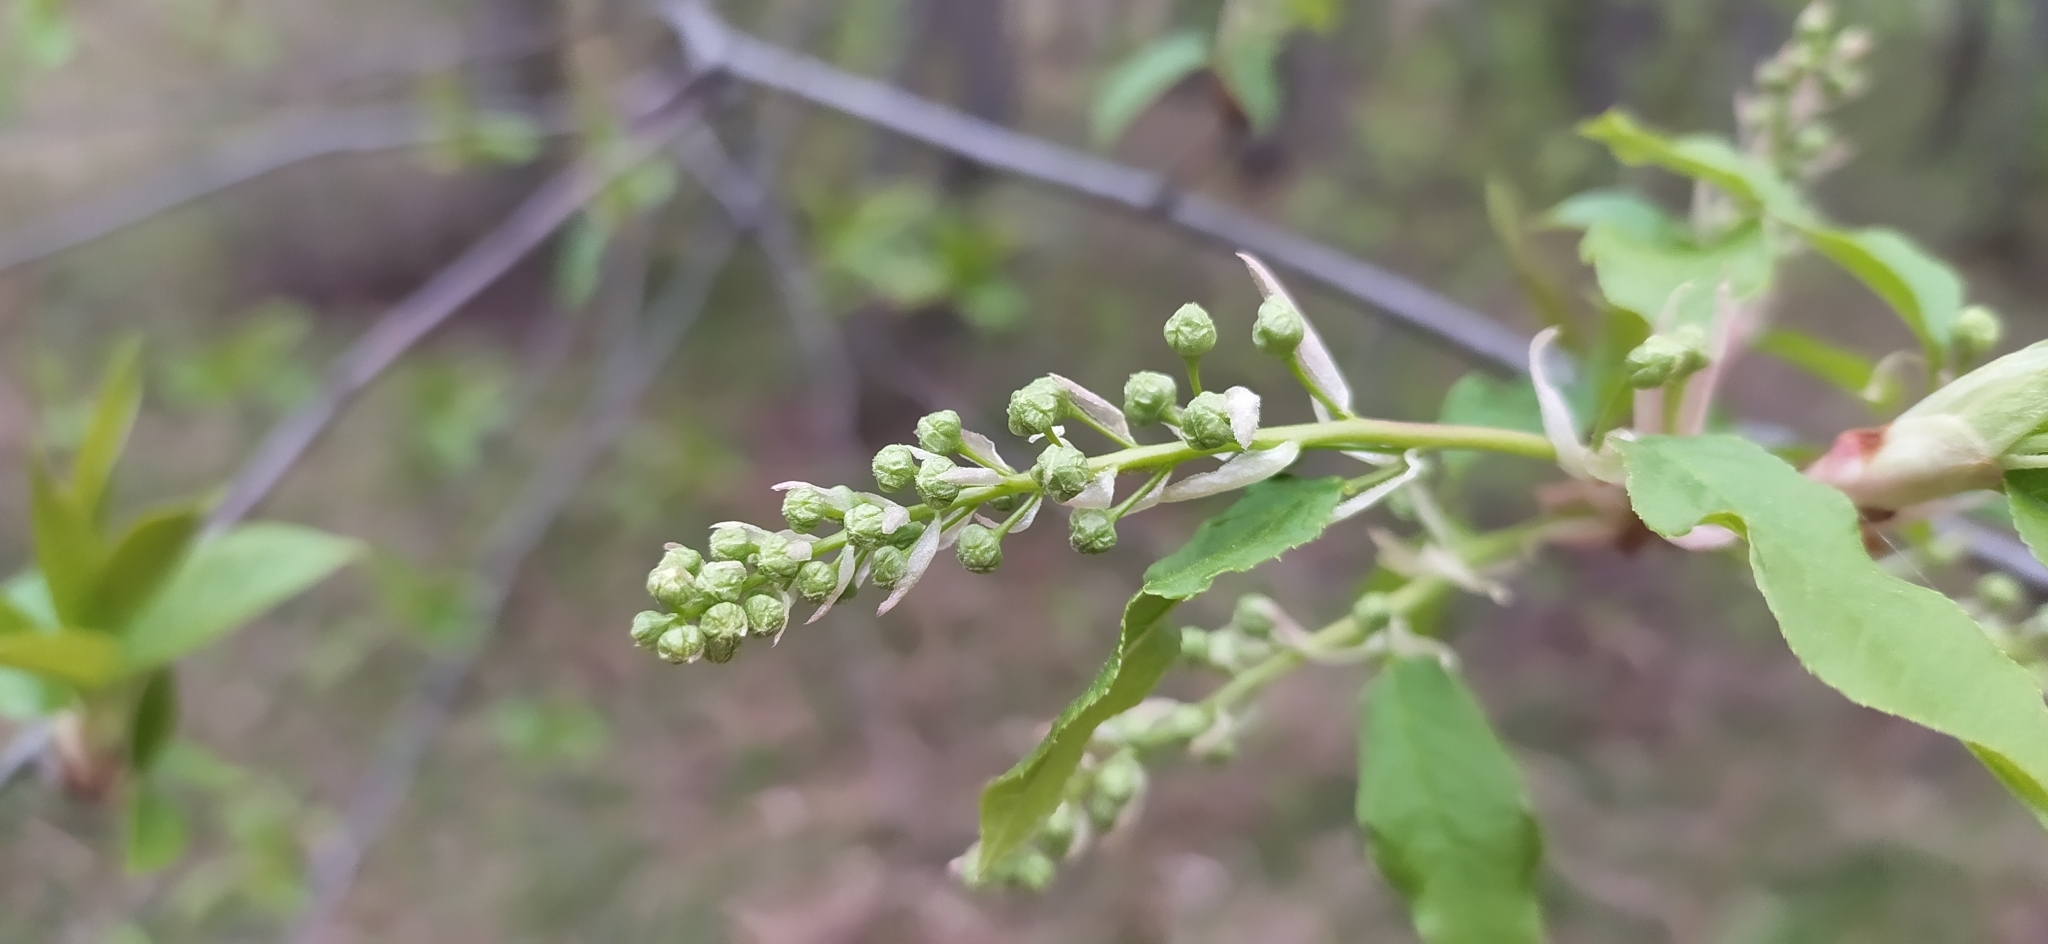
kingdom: Plantae
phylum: Tracheophyta
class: Magnoliopsida
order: Rosales
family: Rosaceae
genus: Prunus
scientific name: Prunus padus
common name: Bird cherry
